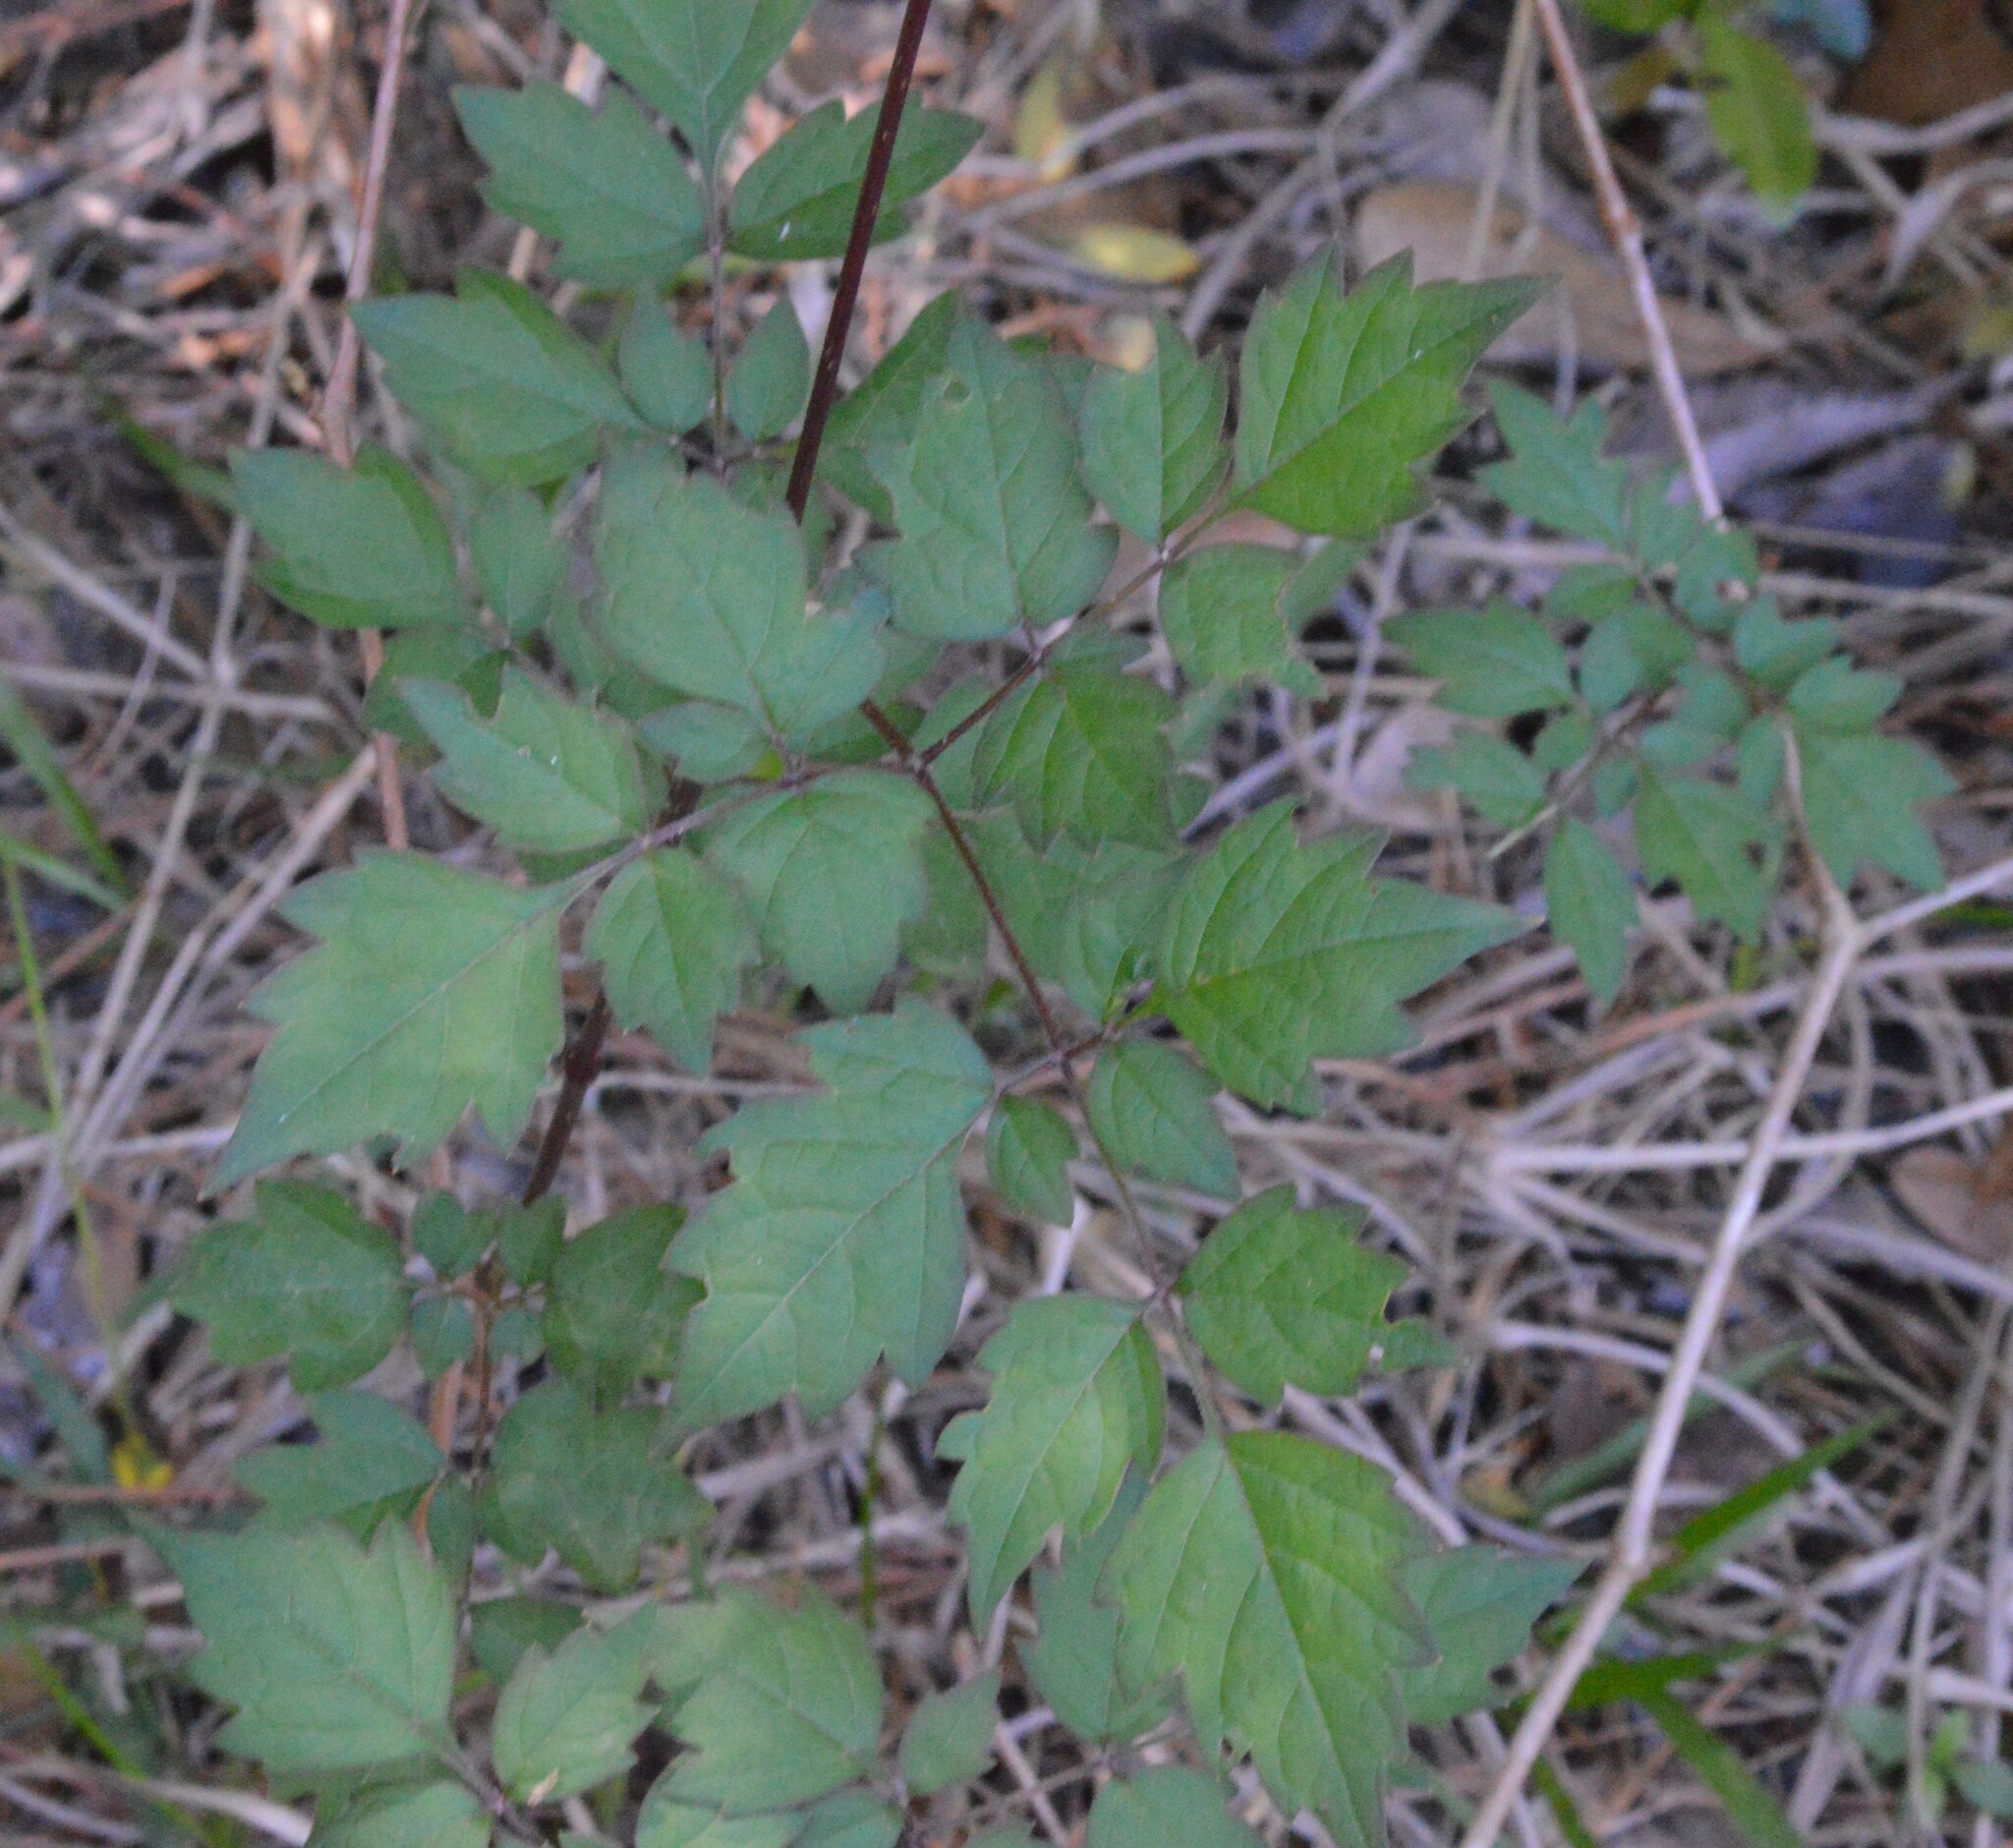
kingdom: Plantae
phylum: Tracheophyta
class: Magnoliopsida
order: Vitales
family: Vitaceae
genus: Nekemias
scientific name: Nekemias arborea
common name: Peppervine
